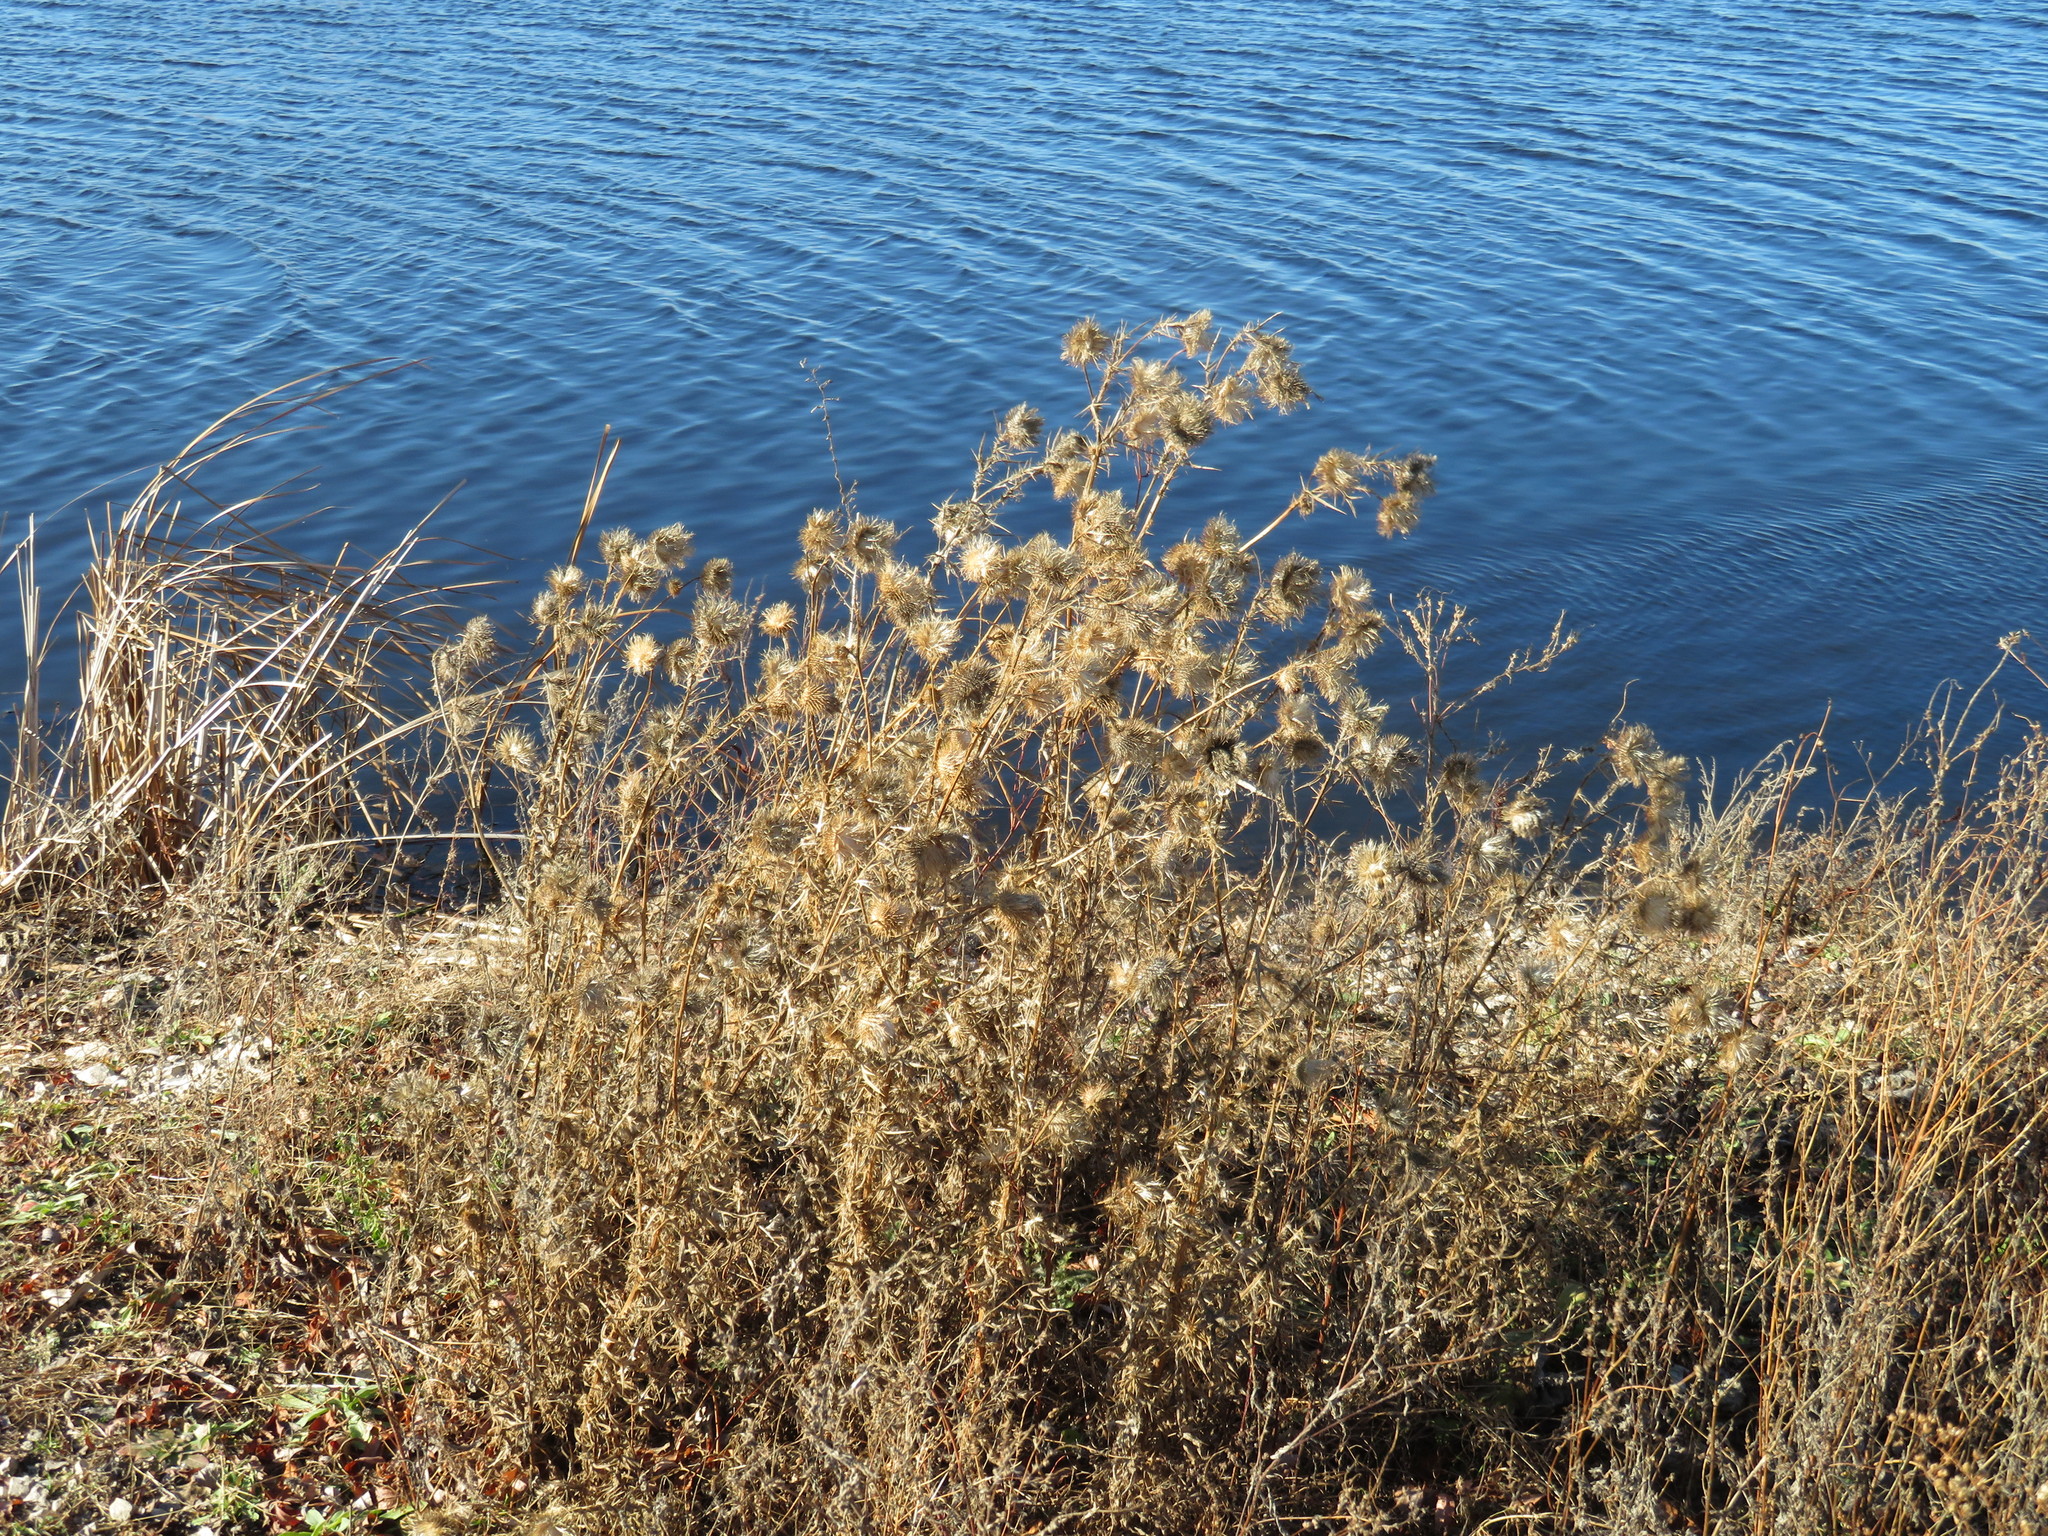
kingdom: Plantae
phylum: Tracheophyta
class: Magnoliopsida
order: Asterales
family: Asteraceae
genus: Cirsium
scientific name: Cirsium vulgare
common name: Bull thistle
